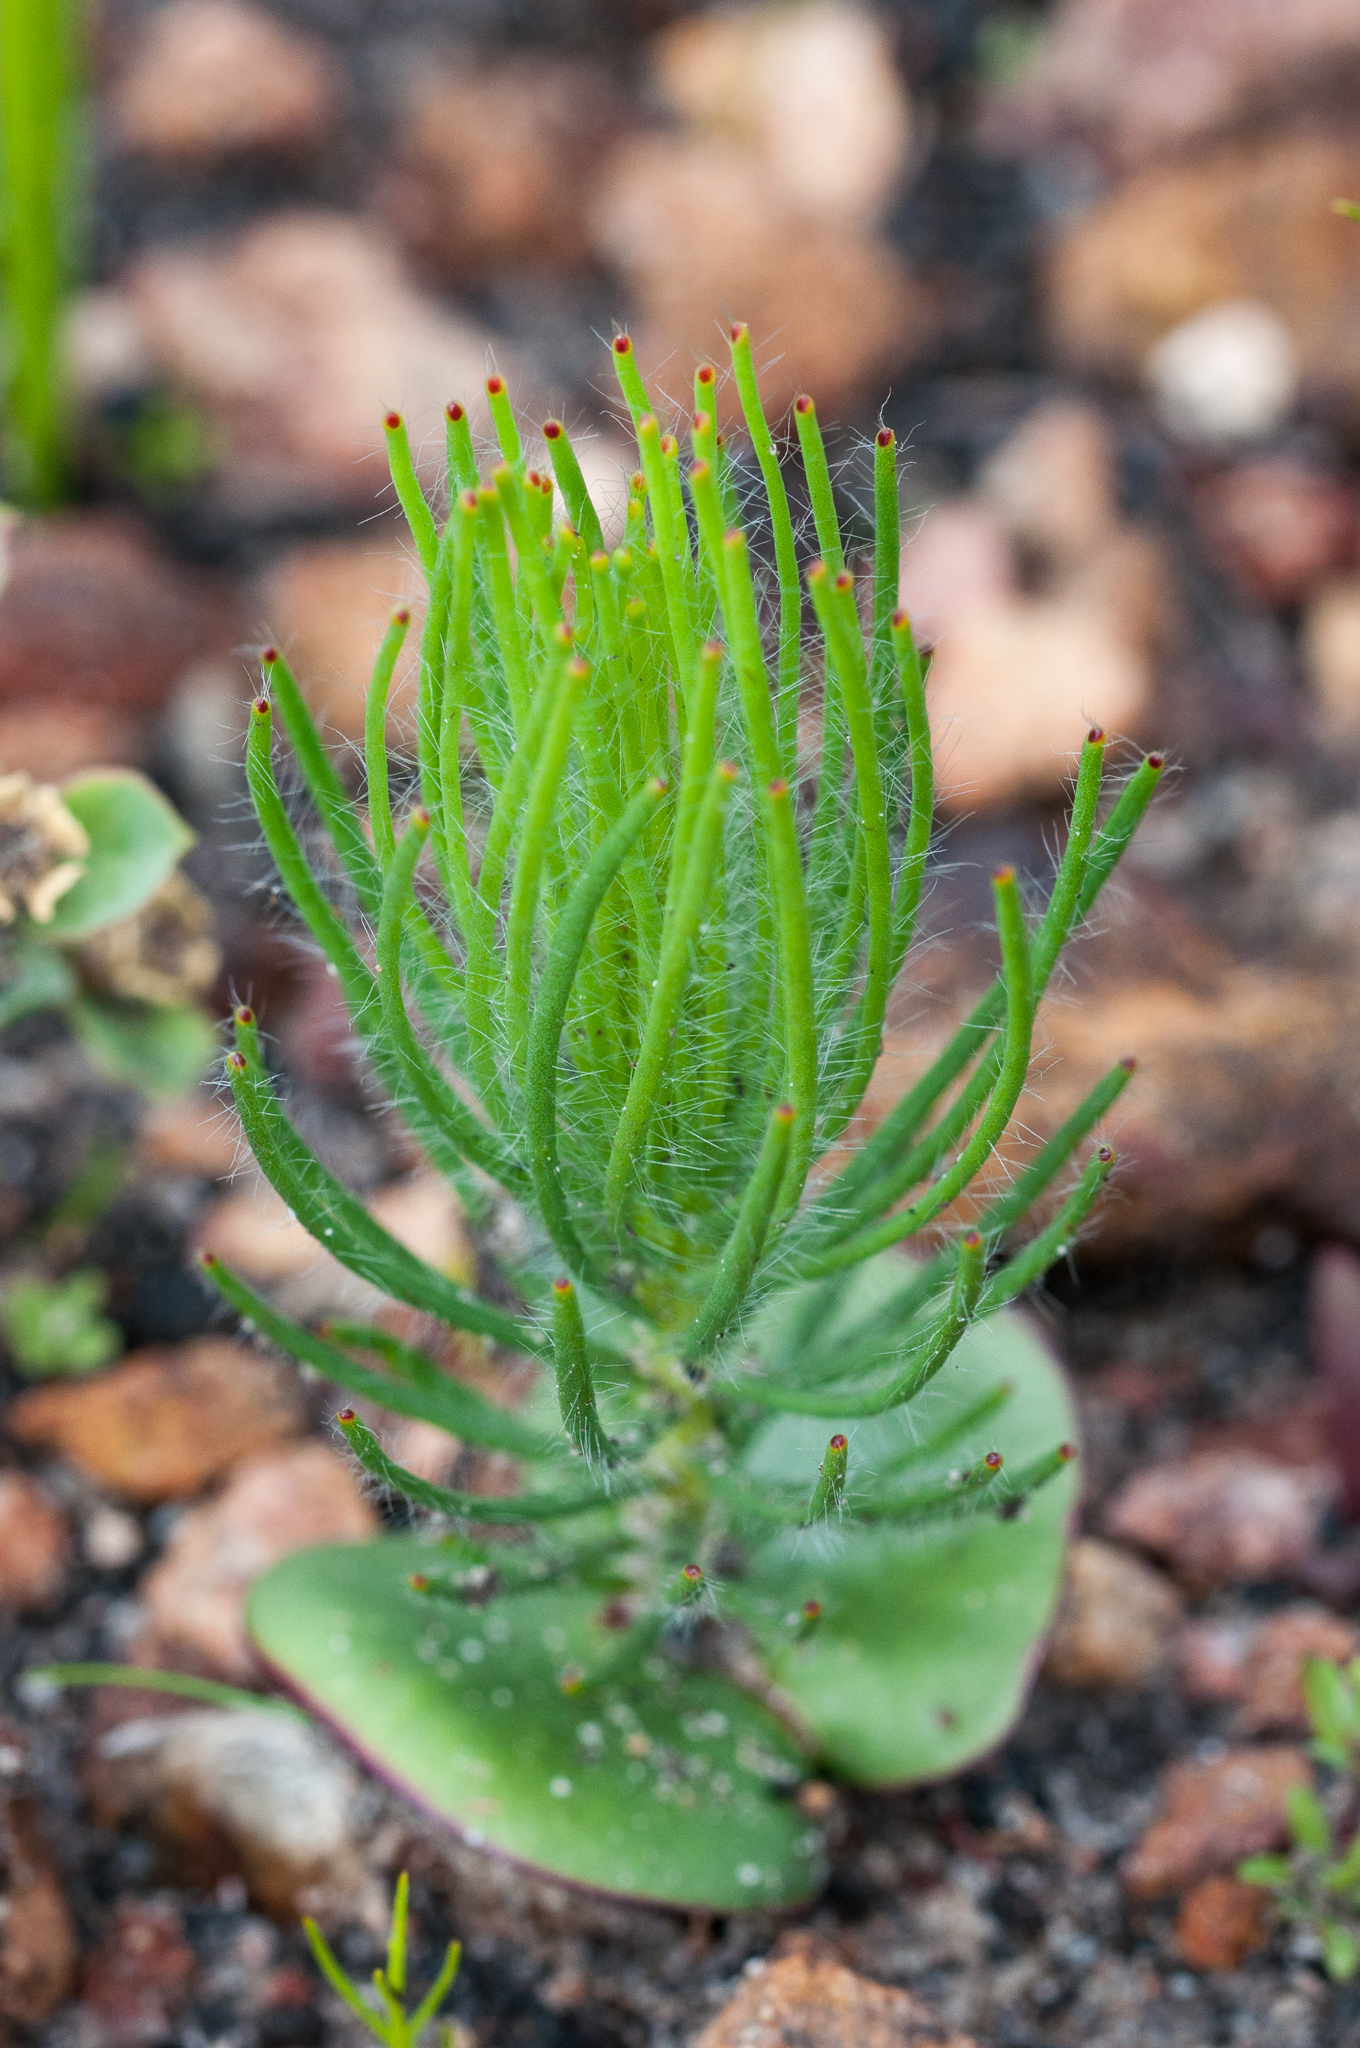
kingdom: Plantae
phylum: Tracheophyta
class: Magnoliopsida
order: Proteales
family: Proteaceae
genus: Leucadendron
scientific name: Leucadendron platyspermum
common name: Plate-seed conebush
